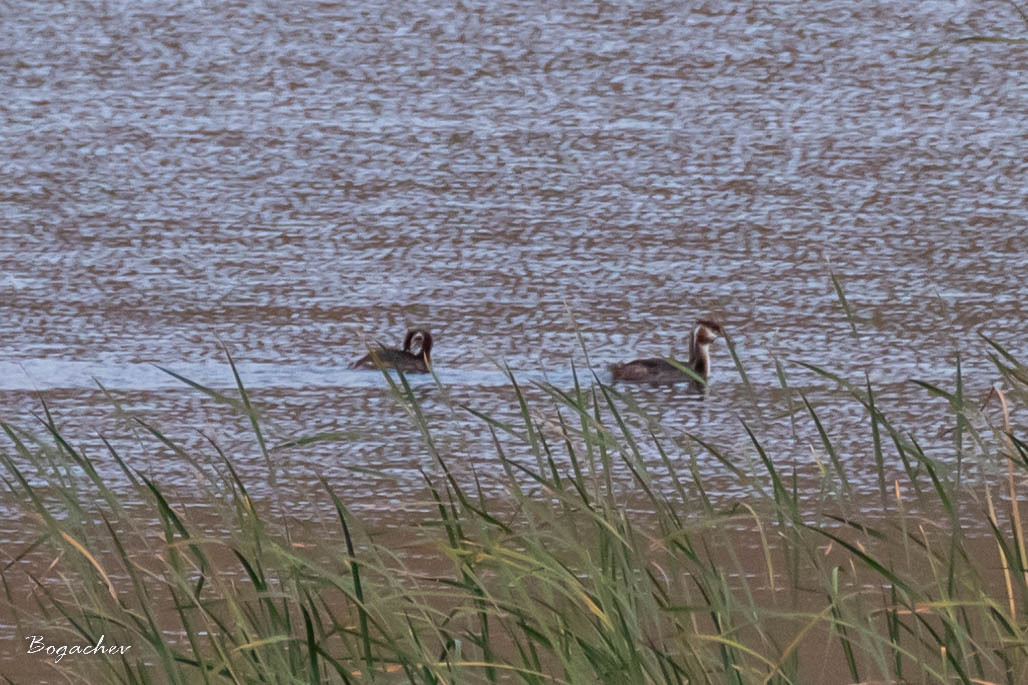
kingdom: Animalia
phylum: Chordata
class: Aves
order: Podicipediformes
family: Podicipedidae
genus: Podiceps
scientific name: Podiceps cristatus
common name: Great crested grebe
